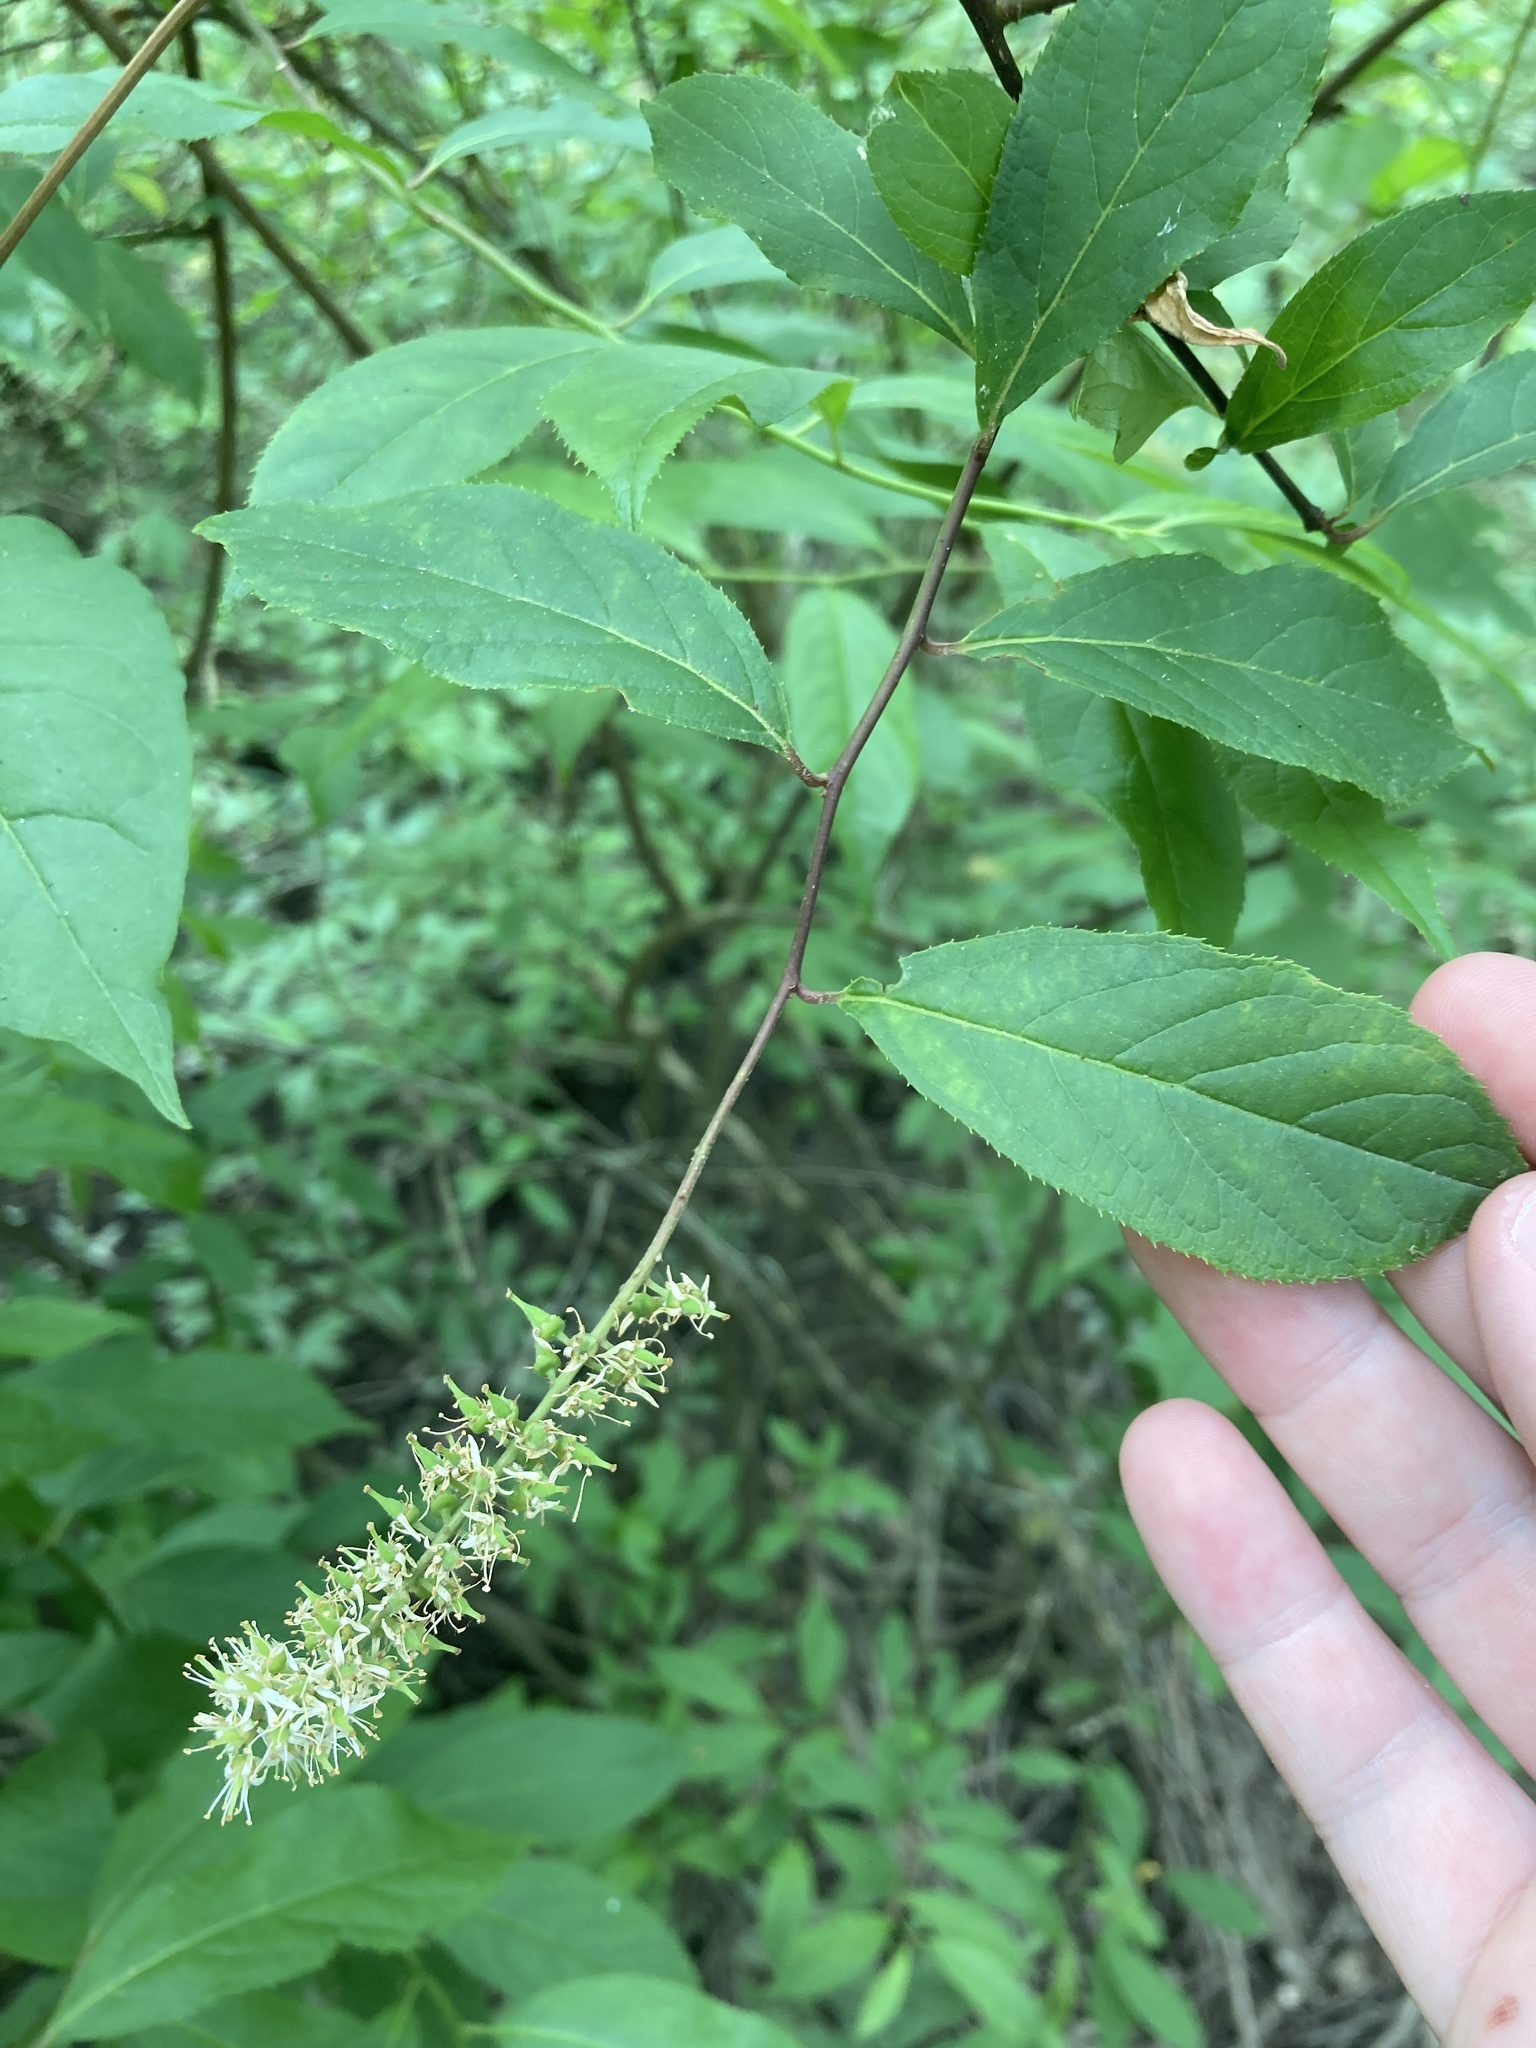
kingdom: Plantae
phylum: Tracheophyta
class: Magnoliopsida
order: Saxifragales
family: Iteaceae
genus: Itea
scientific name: Itea virginica
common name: Sweetspire
